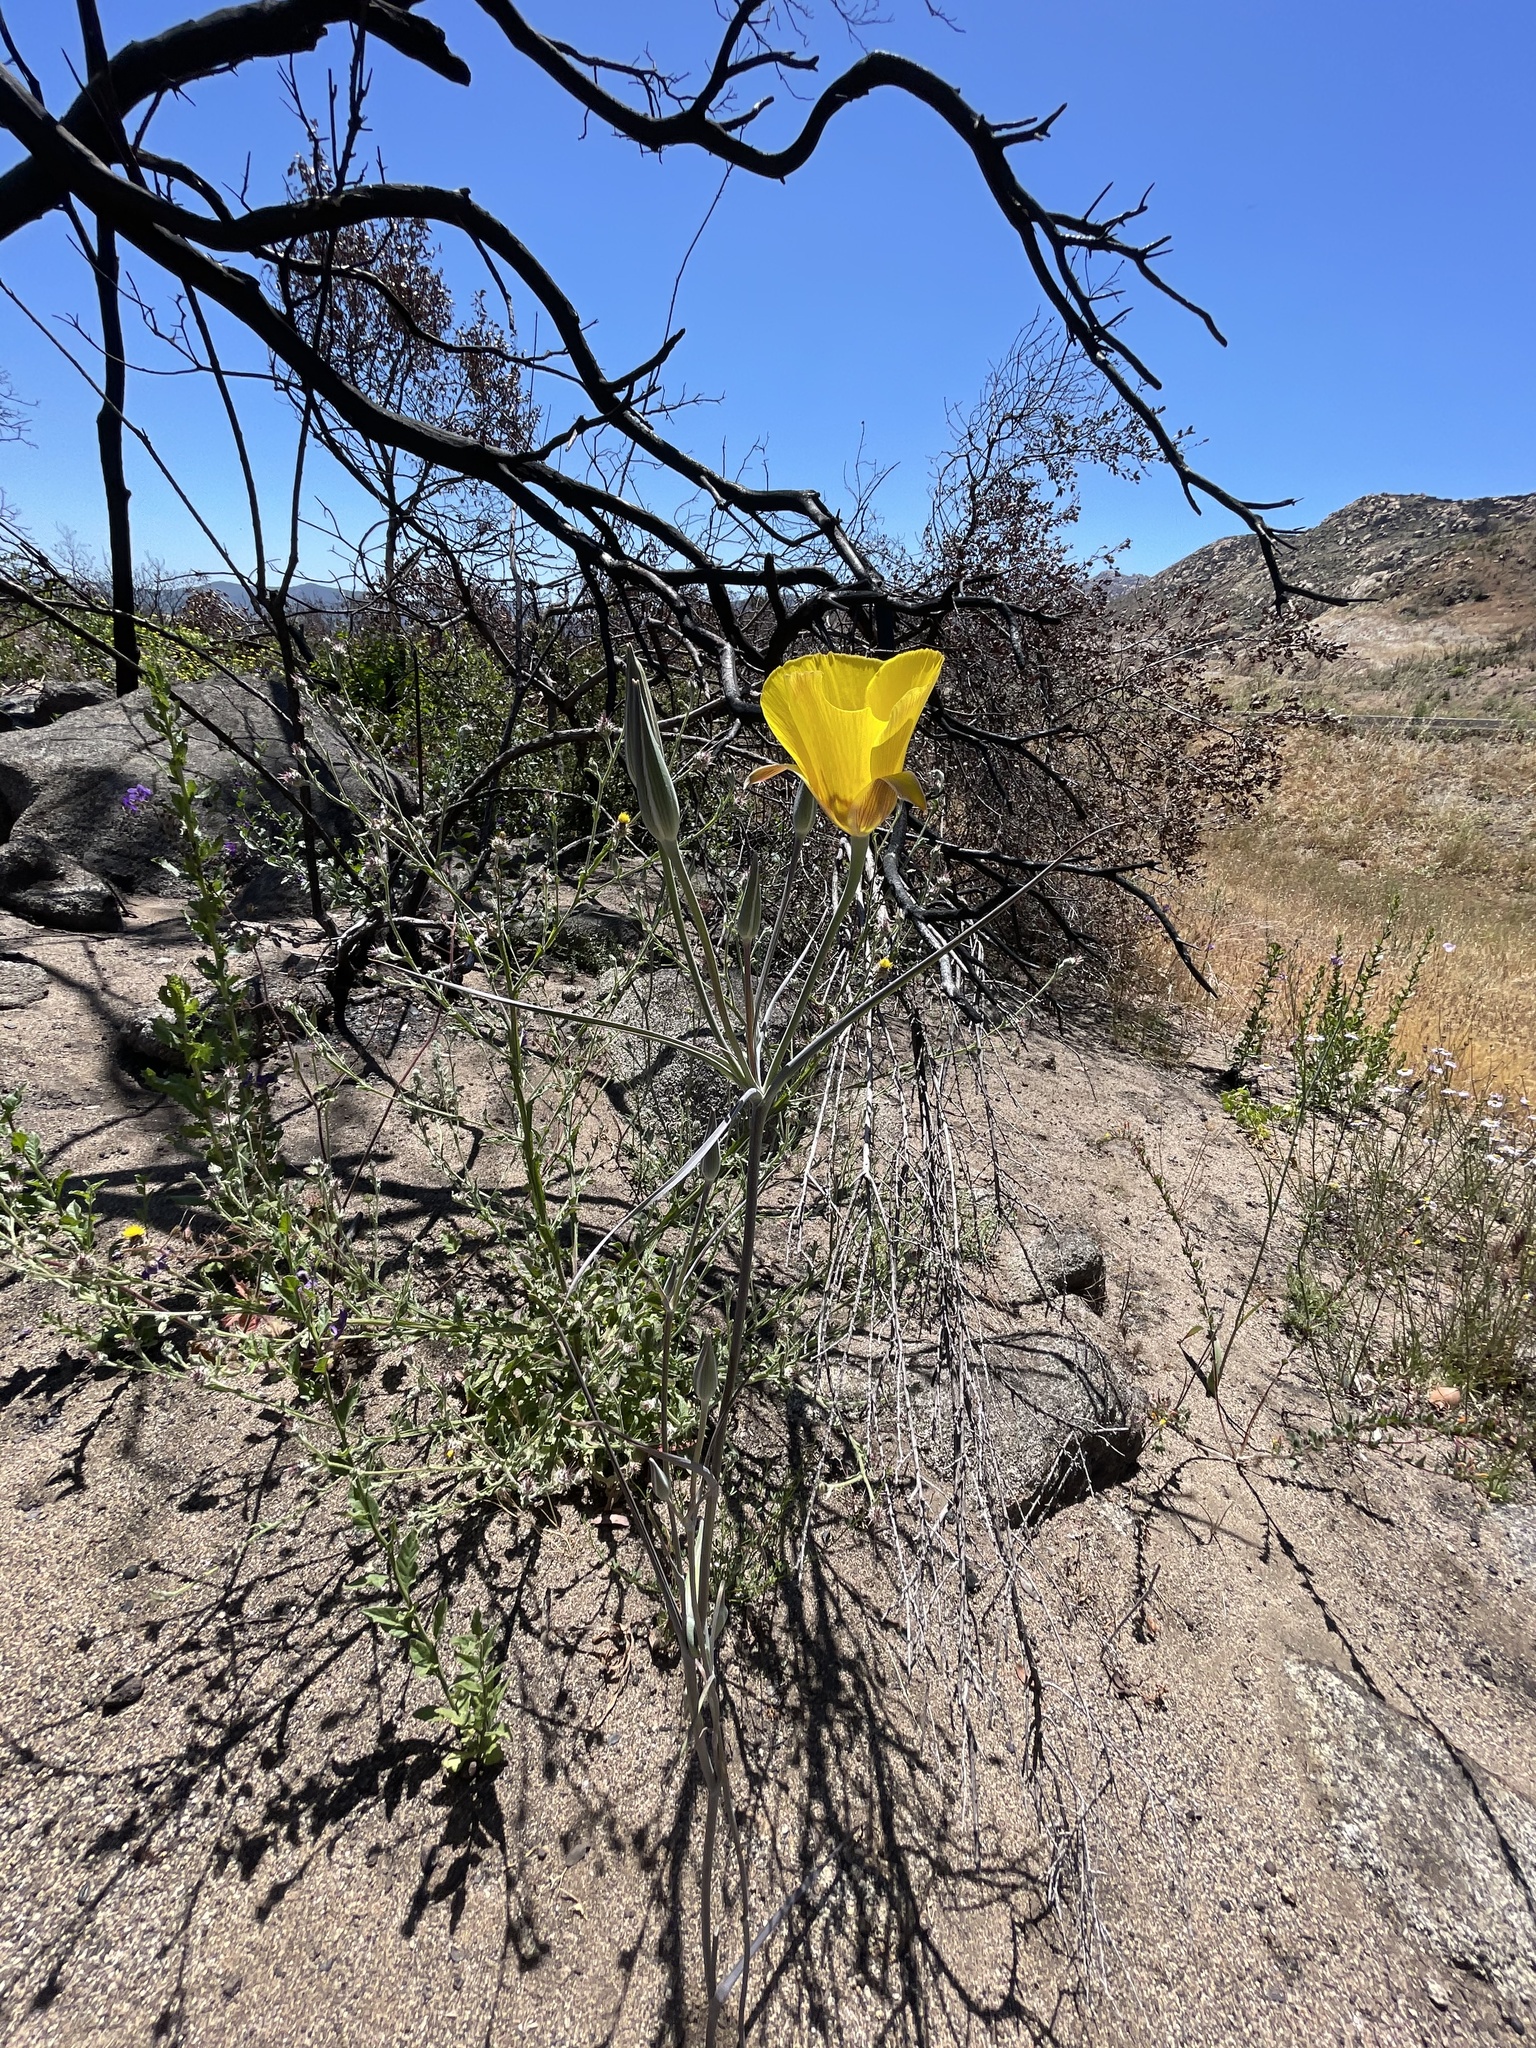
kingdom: Plantae
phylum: Tracheophyta
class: Liliopsida
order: Liliales
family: Liliaceae
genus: Calochortus
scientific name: Calochortus concolor
